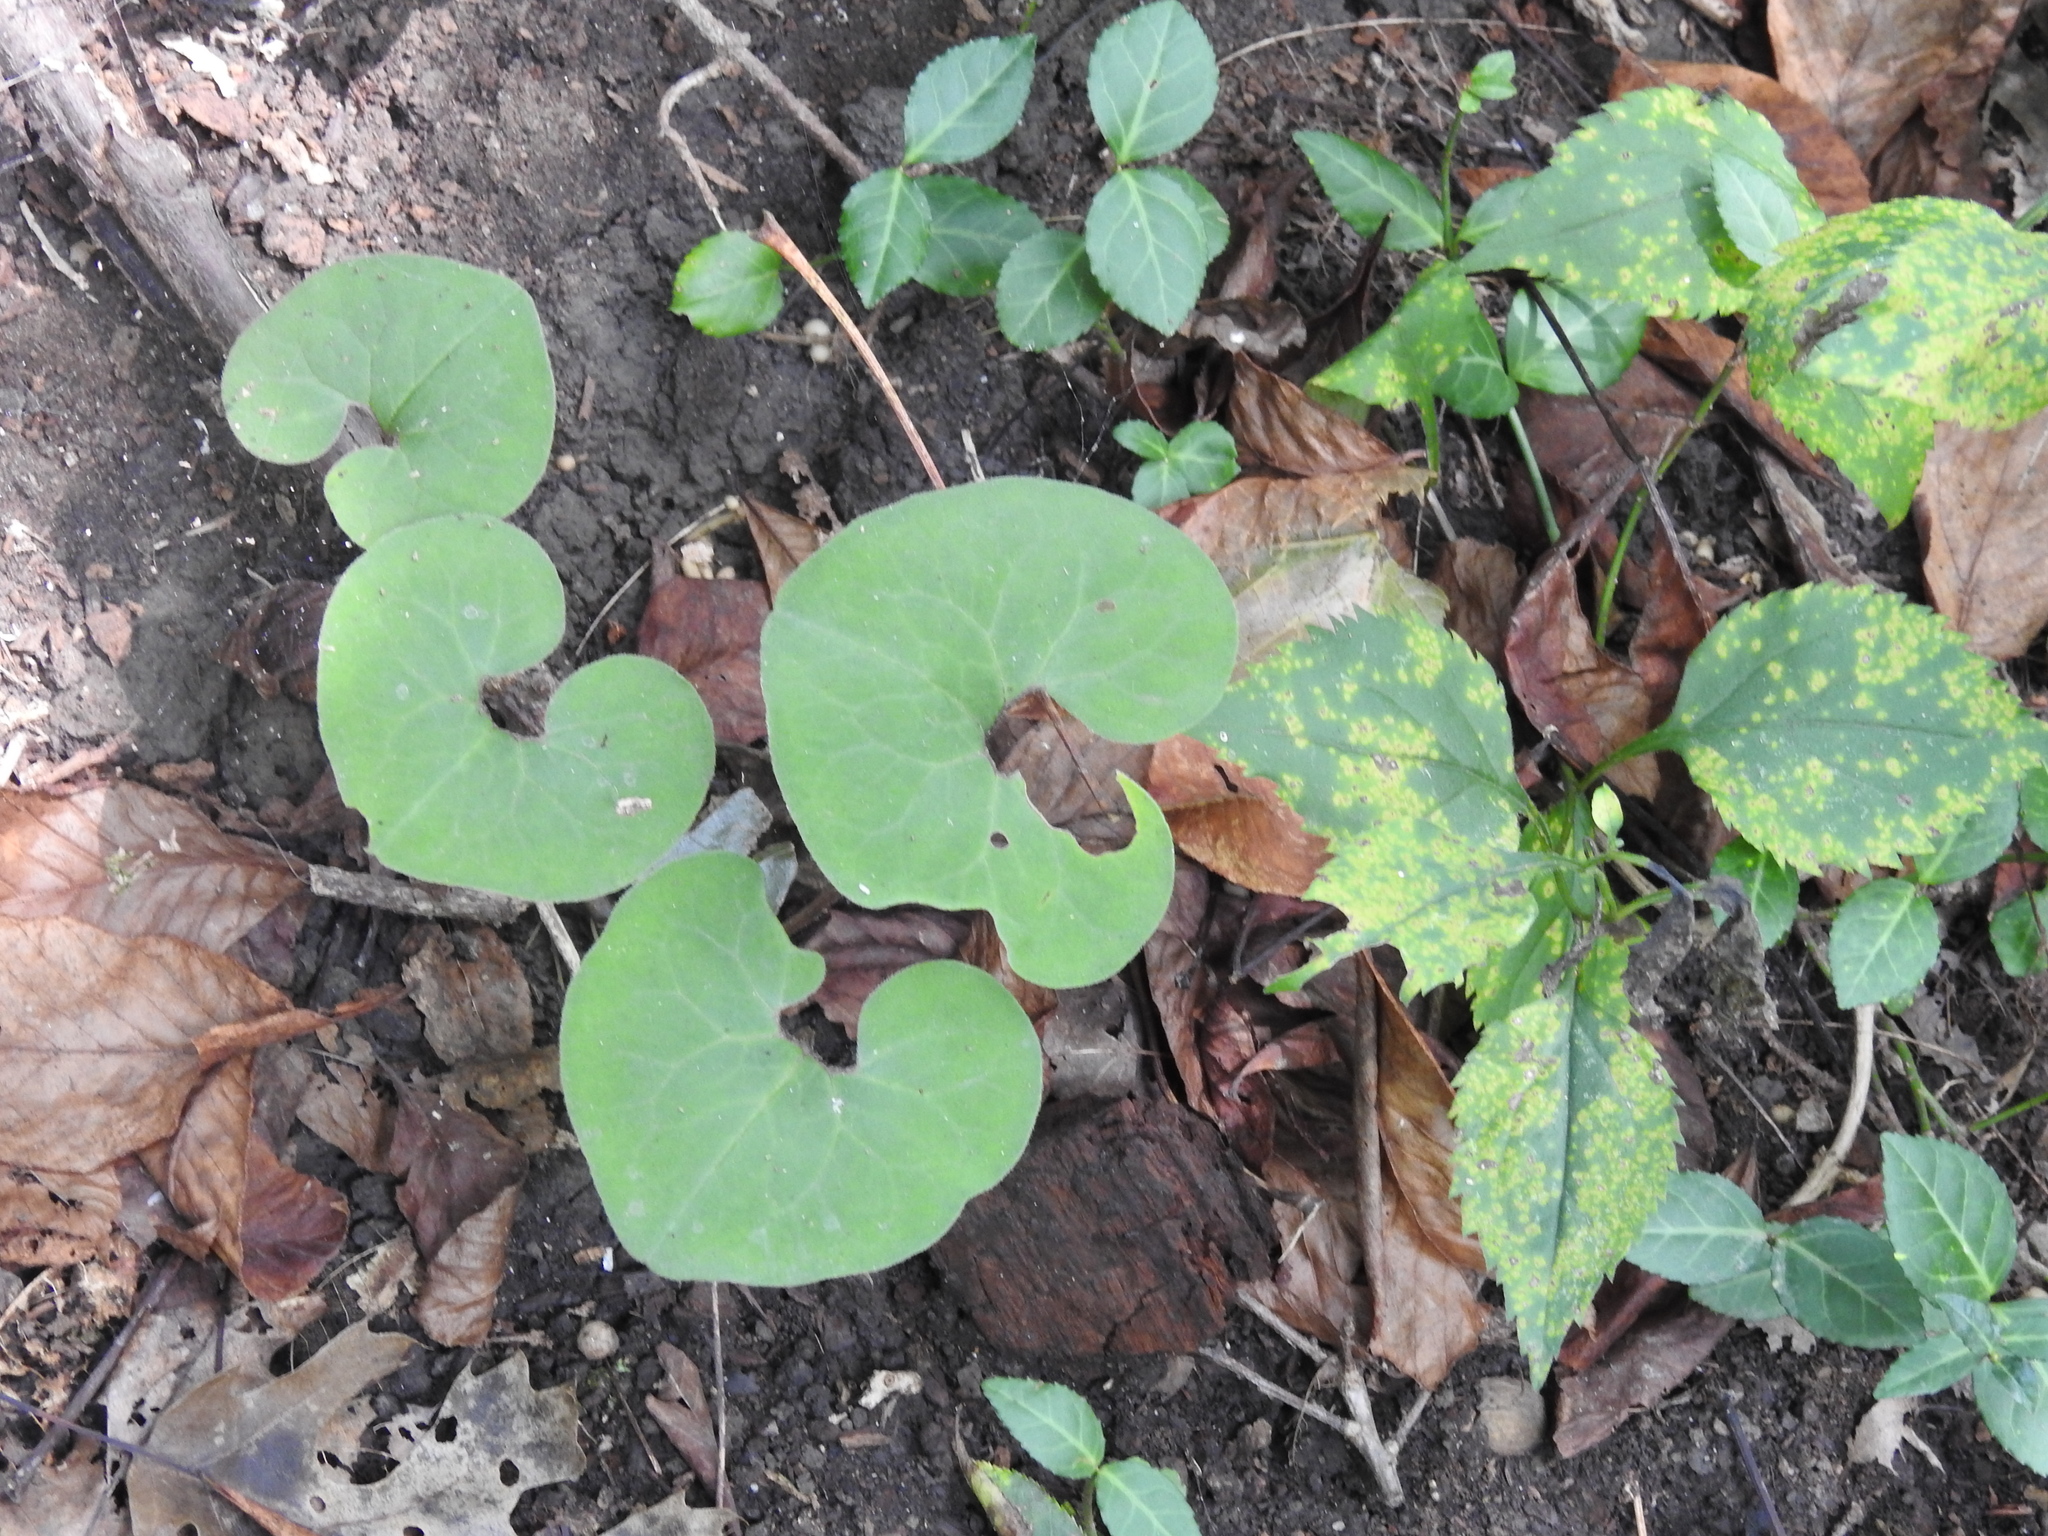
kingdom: Plantae
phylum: Tracheophyta
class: Magnoliopsida
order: Piperales
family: Aristolochiaceae
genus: Asarum
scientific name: Asarum canadense
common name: Wild ginger
